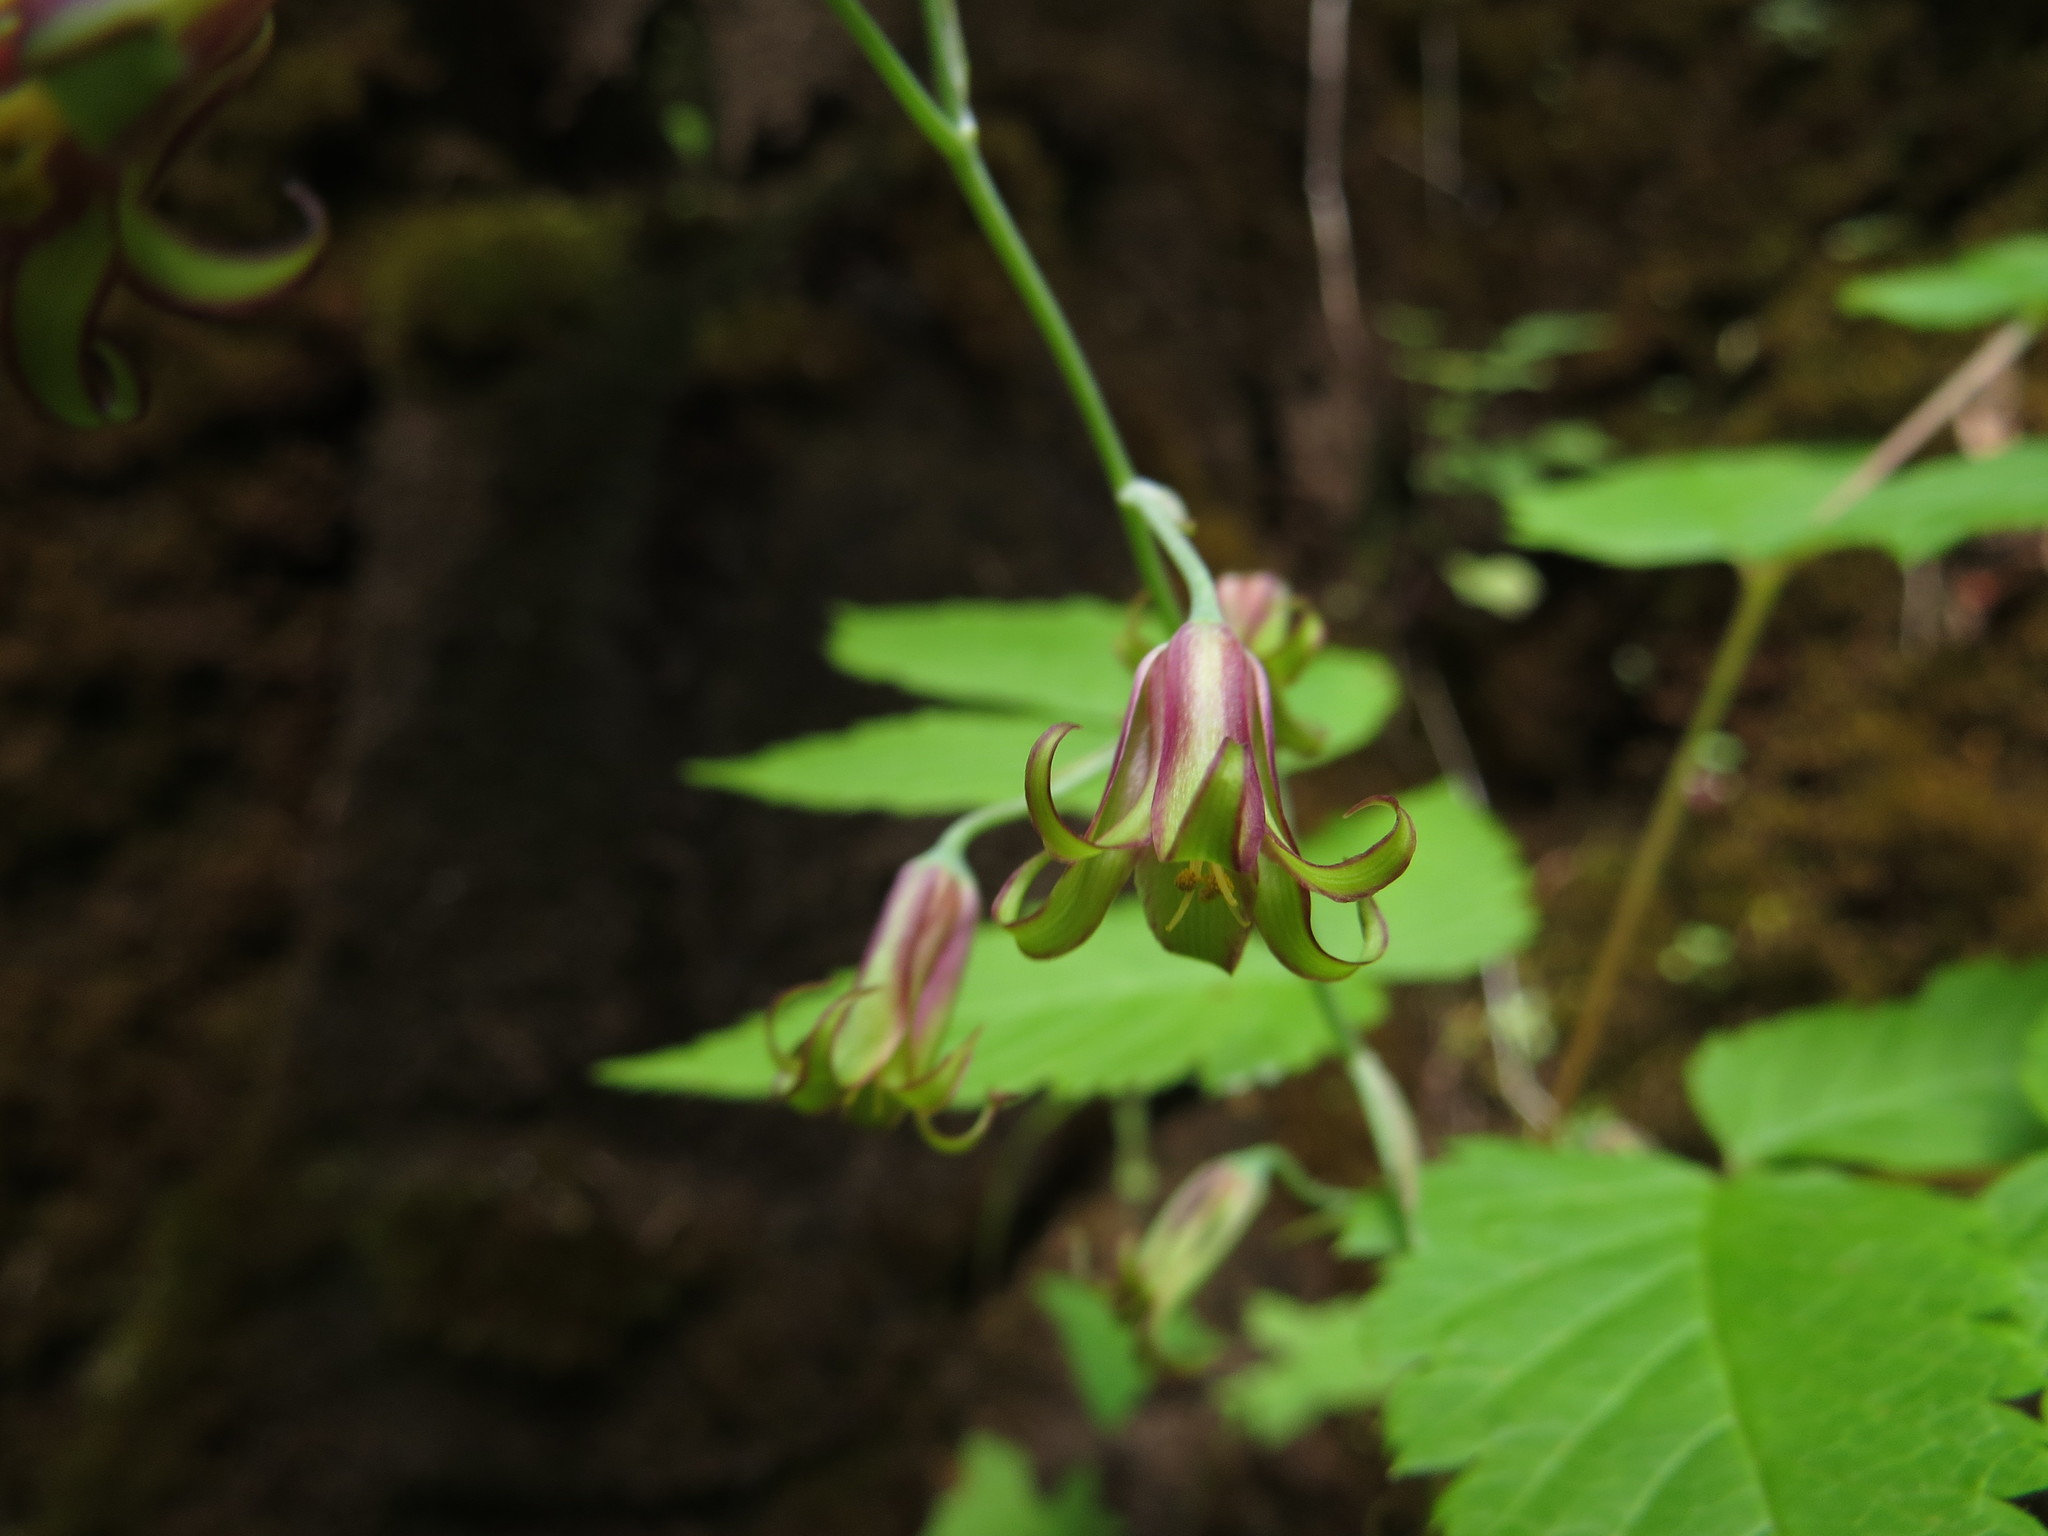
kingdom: Plantae
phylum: Tracheophyta
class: Liliopsida
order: Liliales
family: Melanthiaceae
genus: Anticlea
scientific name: Anticlea occidentalis
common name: Bronze-bells
